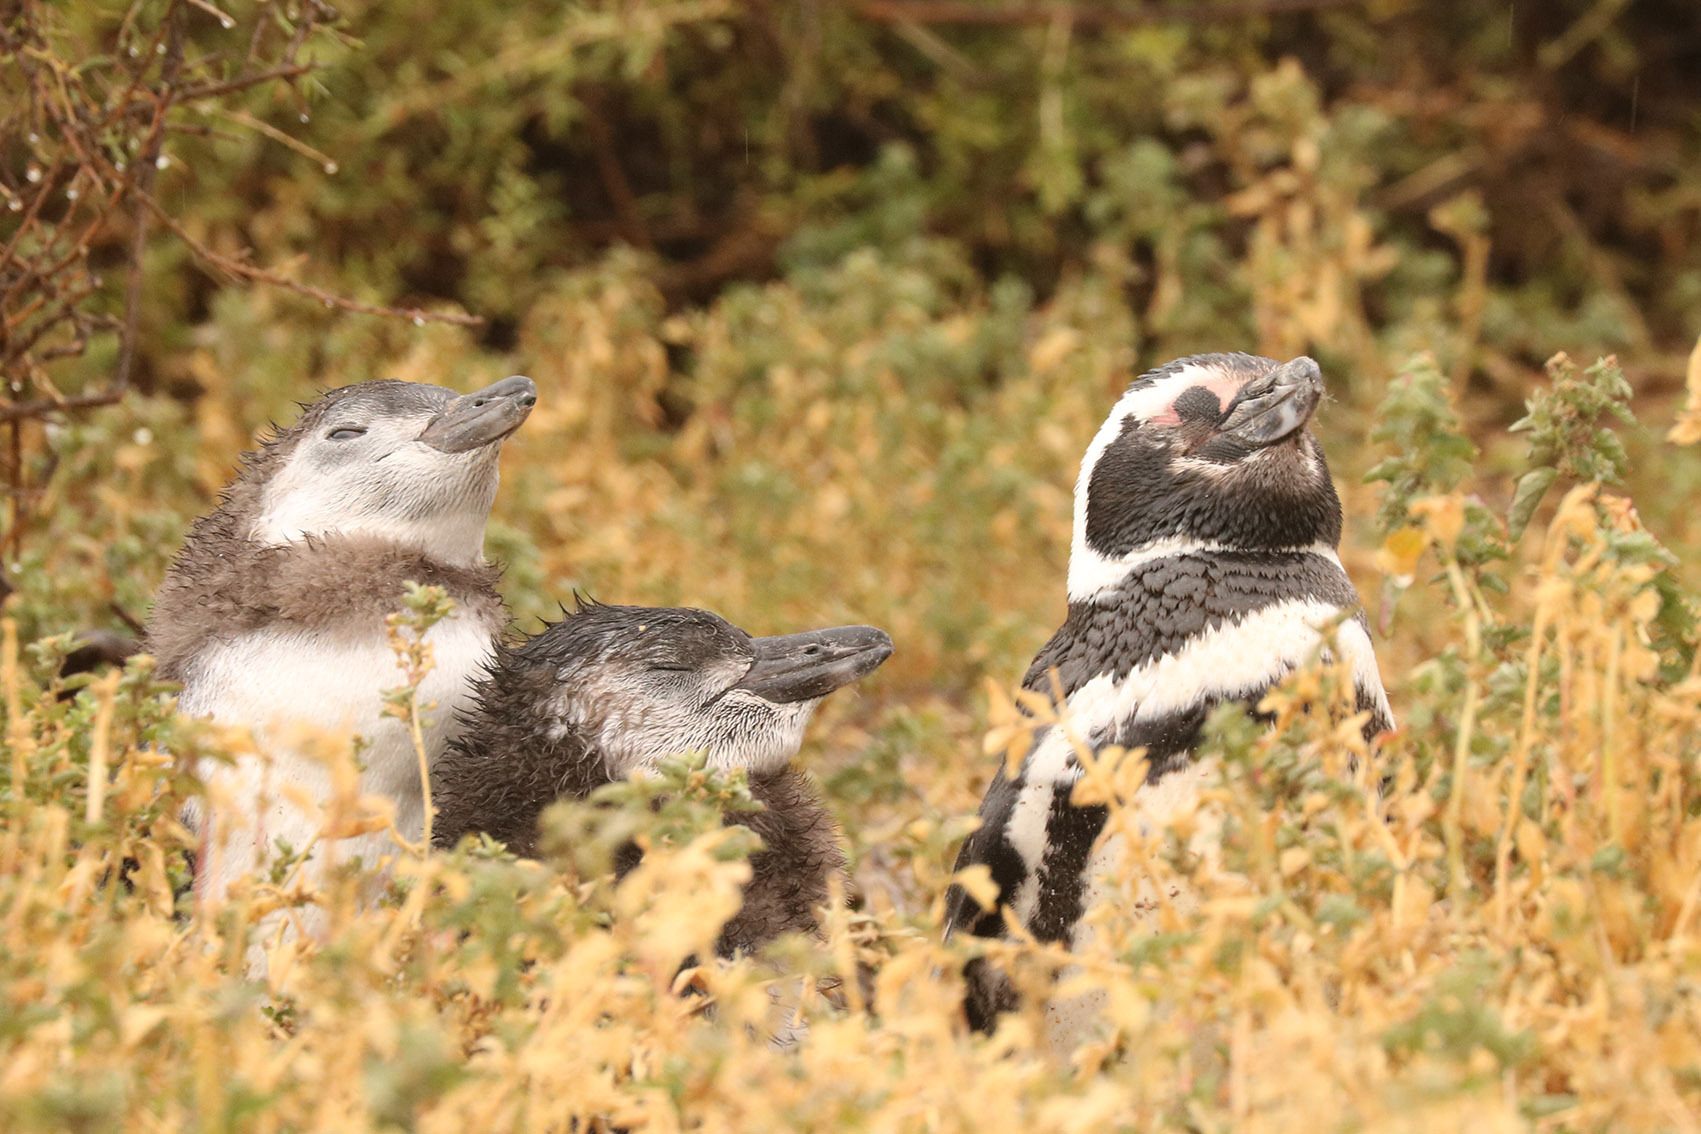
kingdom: Animalia
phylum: Chordata
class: Aves
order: Sphenisciformes
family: Spheniscidae
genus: Spheniscus
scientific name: Spheniscus magellanicus
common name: Magellanic penguin
